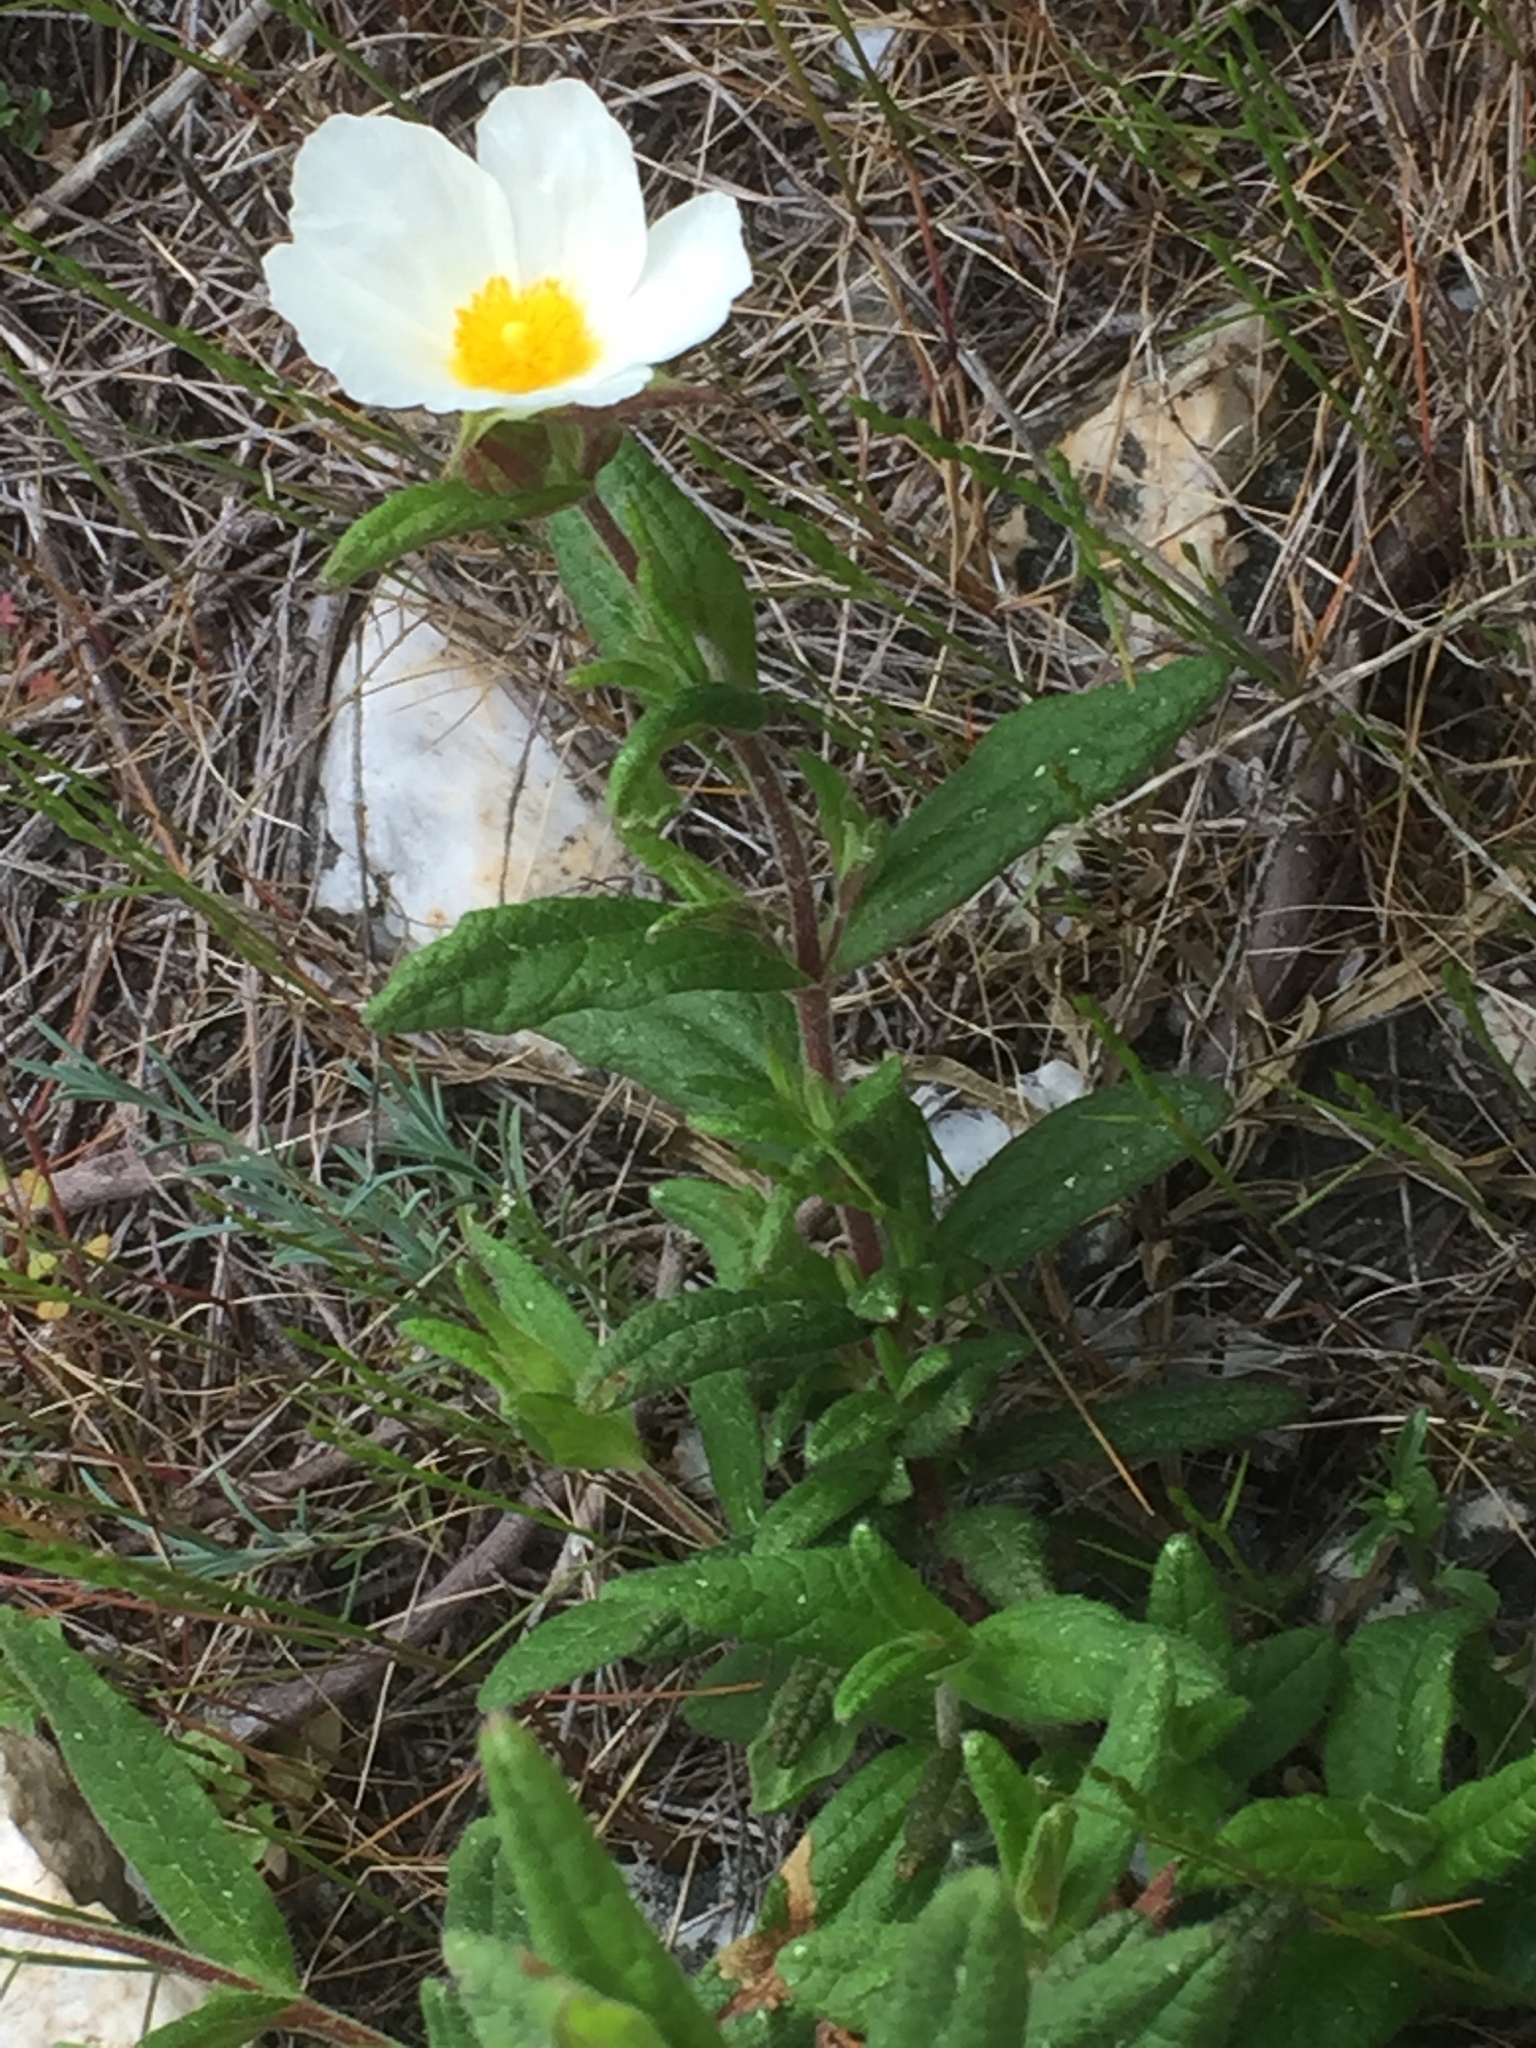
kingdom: Plantae
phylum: Tracheophyta
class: Magnoliopsida
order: Malvales
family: Cistaceae
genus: Cistus
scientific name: Cistus inflatus
